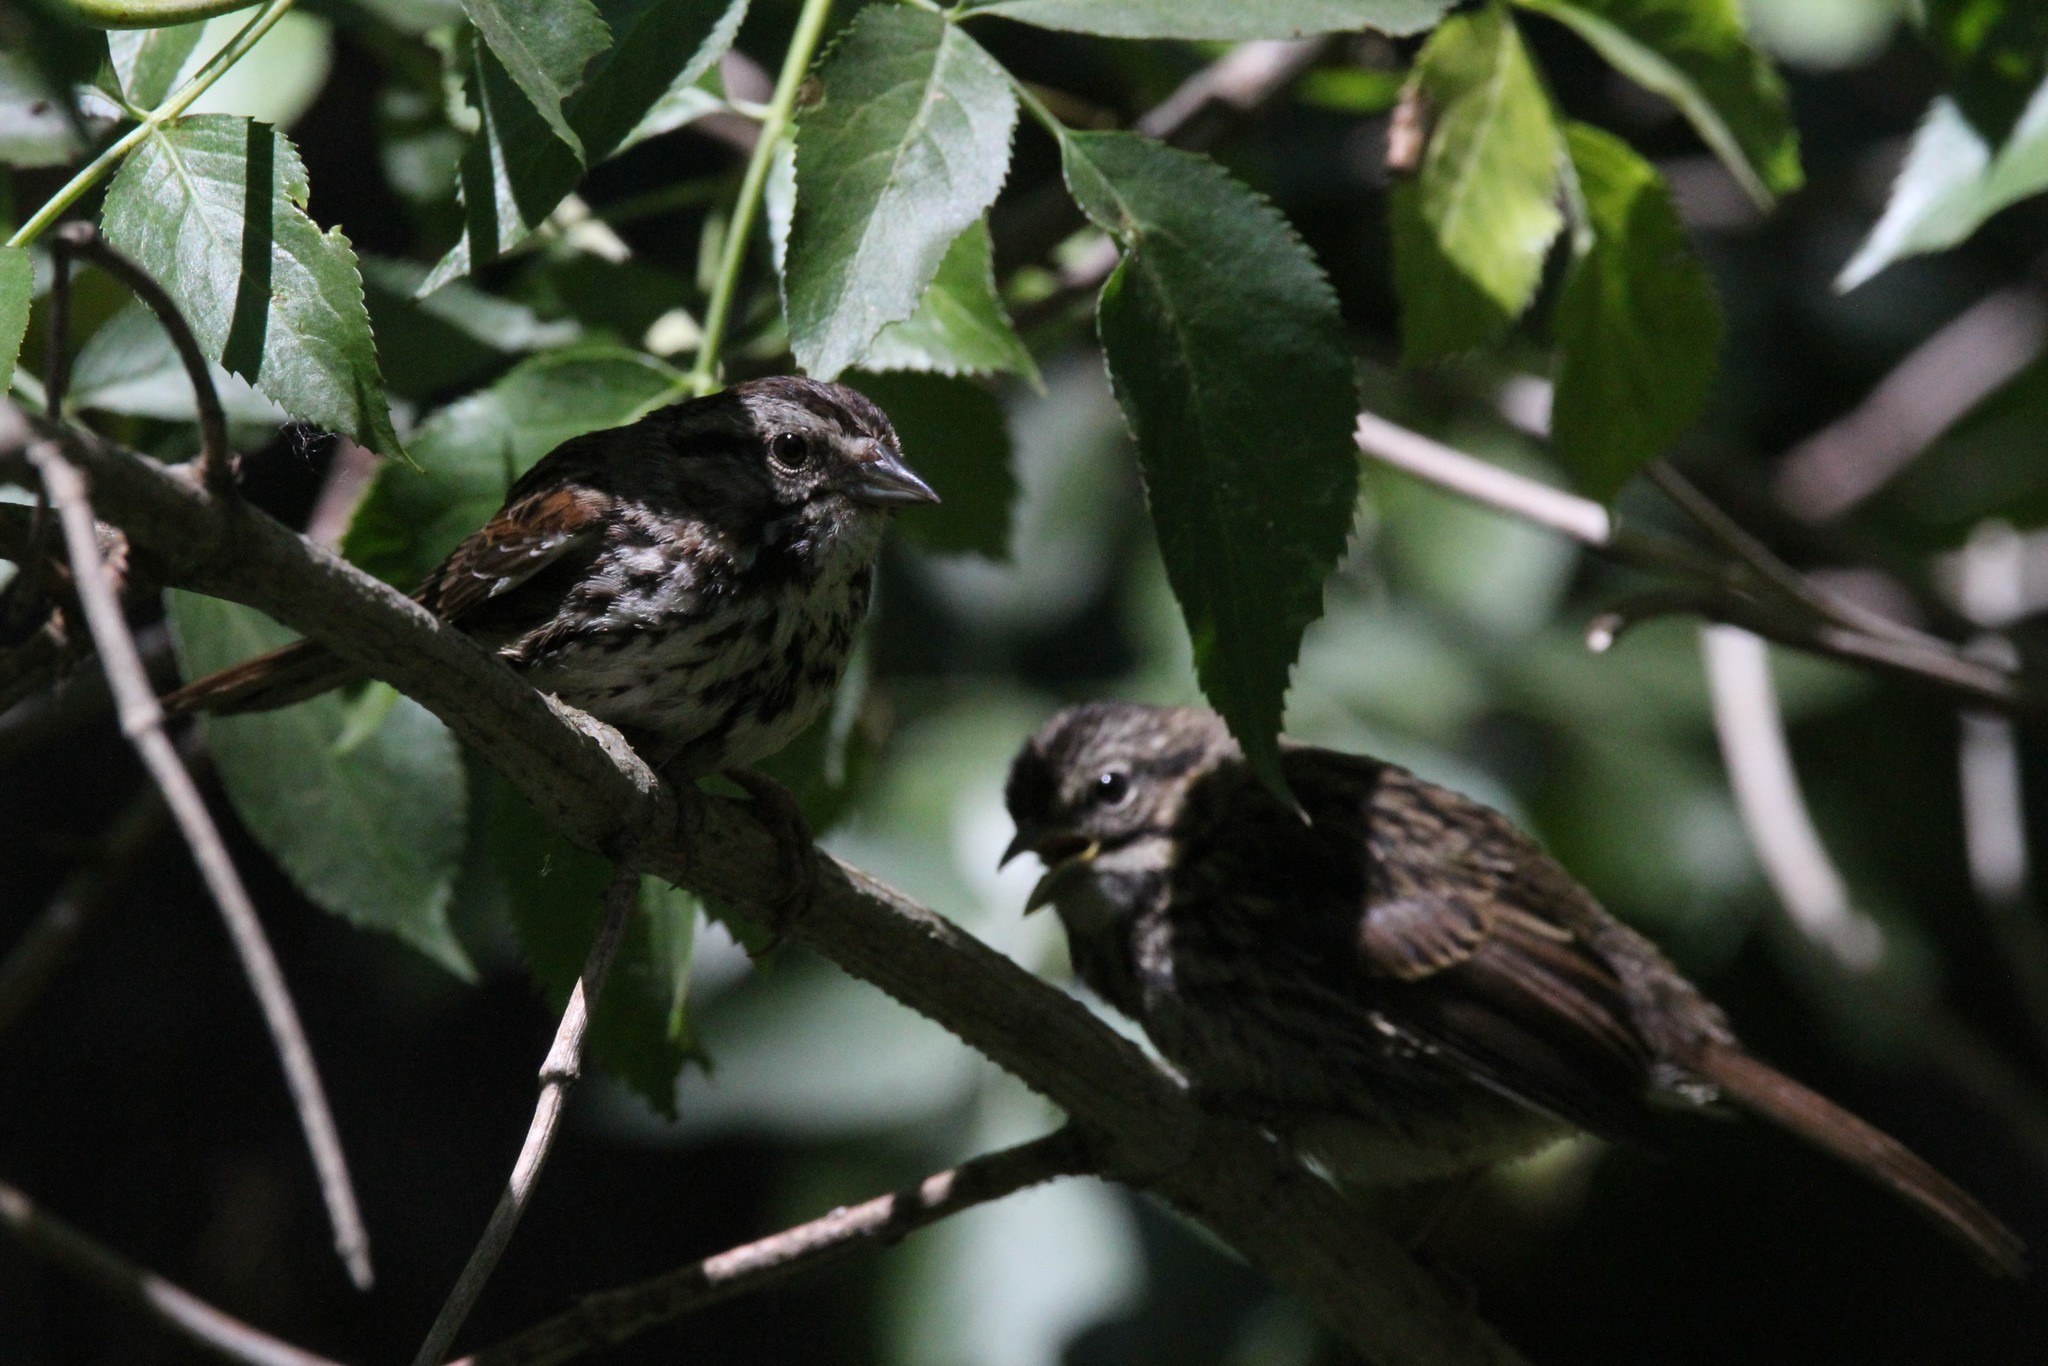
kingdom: Animalia
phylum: Chordata
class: Aves
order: Passeriformes
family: Passerellidae
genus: Melospiza
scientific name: Melospiza melodia
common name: Song sparrow
